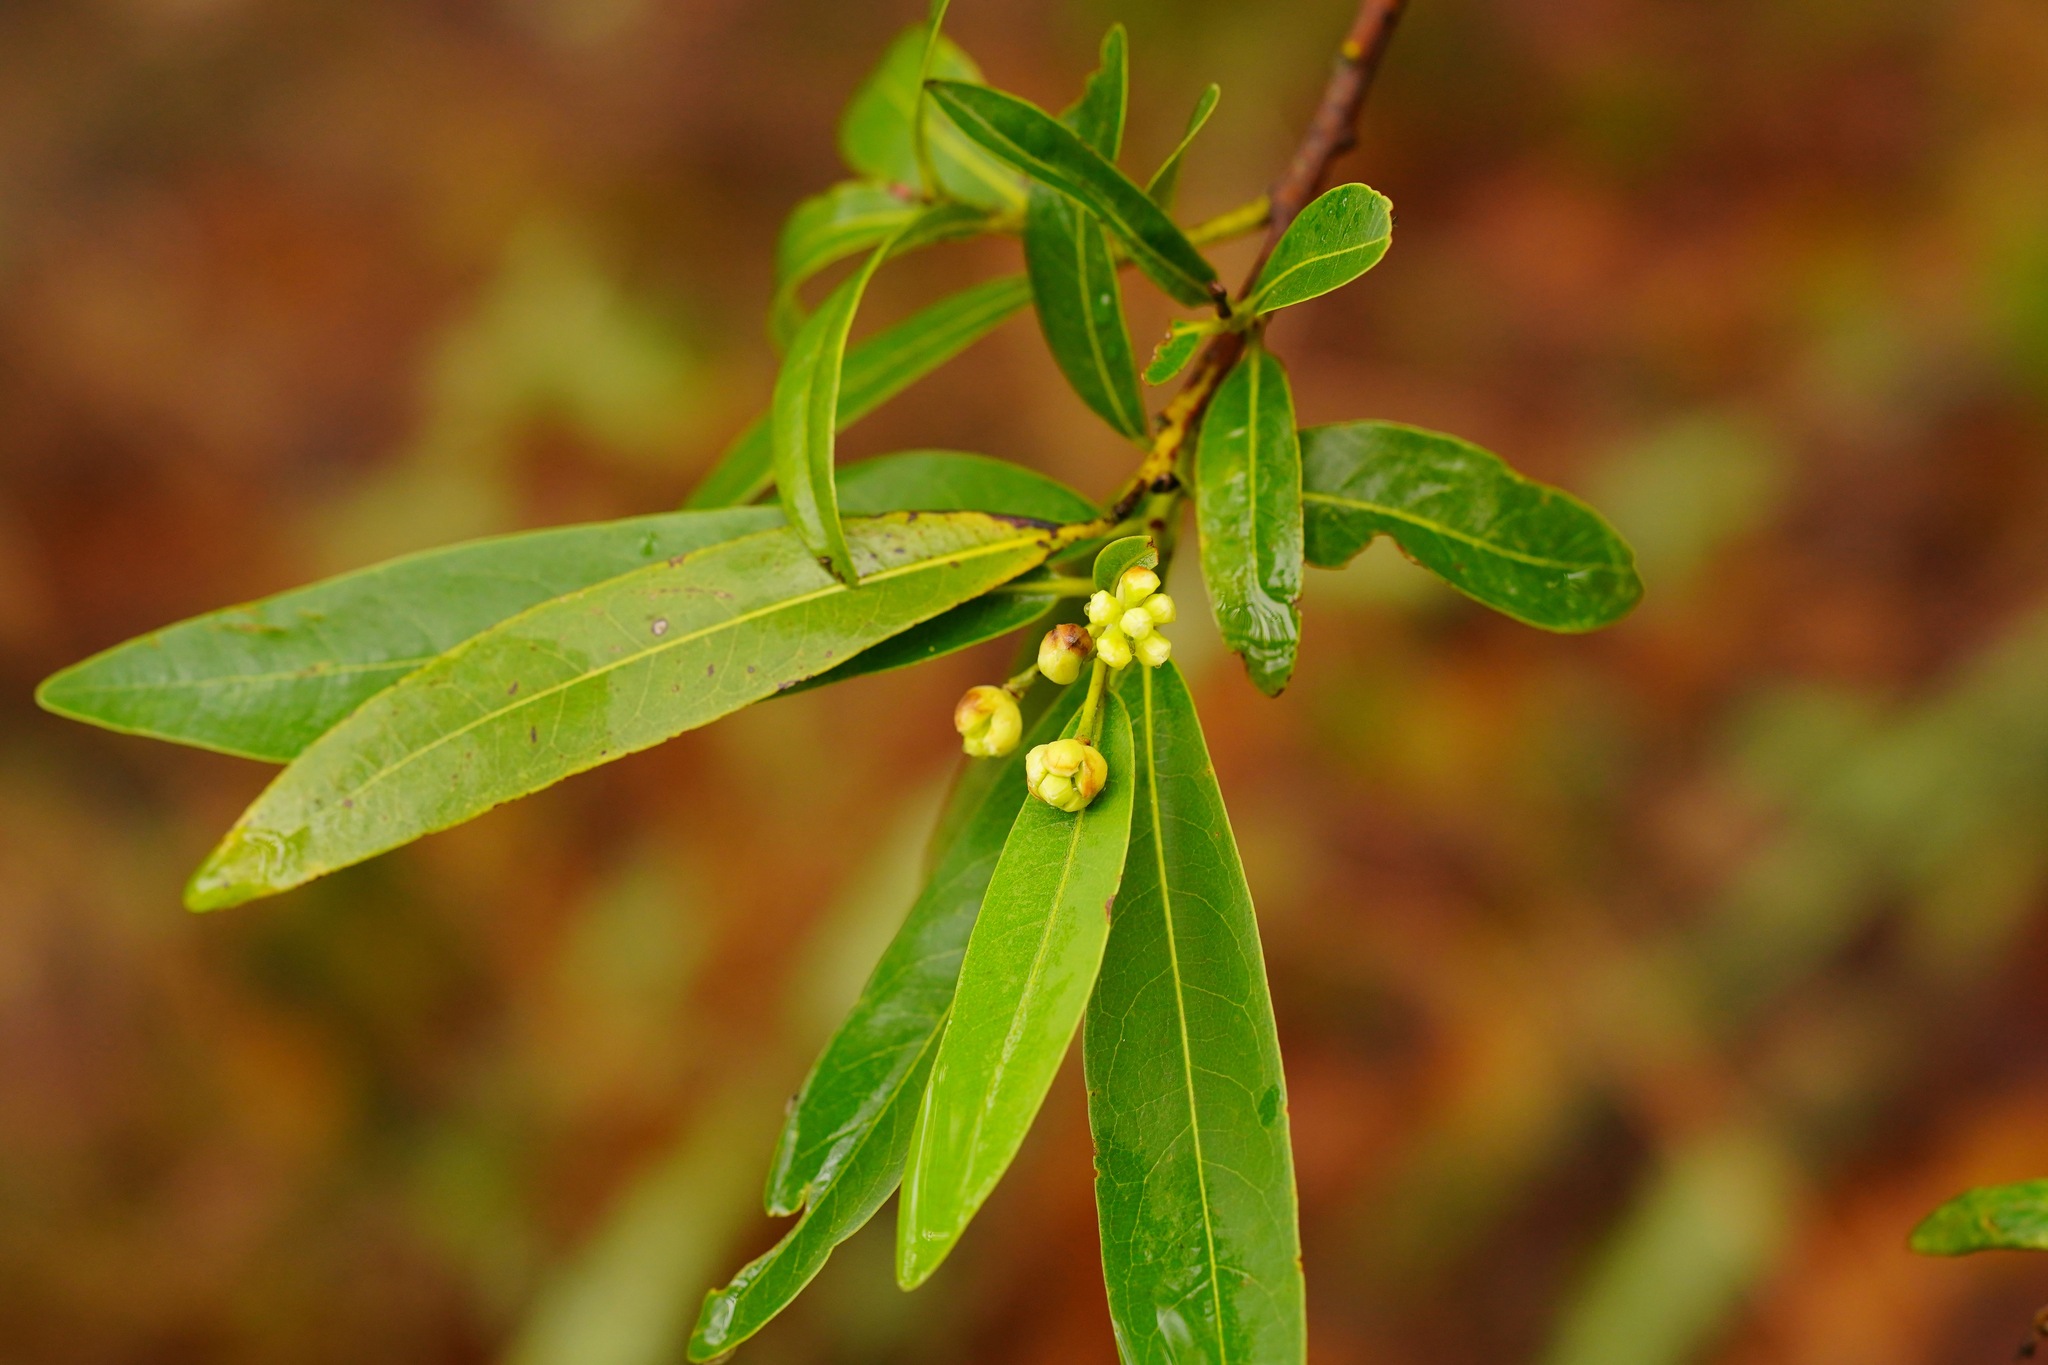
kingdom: Plantae
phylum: Tracheophyta
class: Magnoliopsida
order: Laurales
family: Lauraceae
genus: Umbellularia
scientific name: Umbellularia californica
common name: California bay
